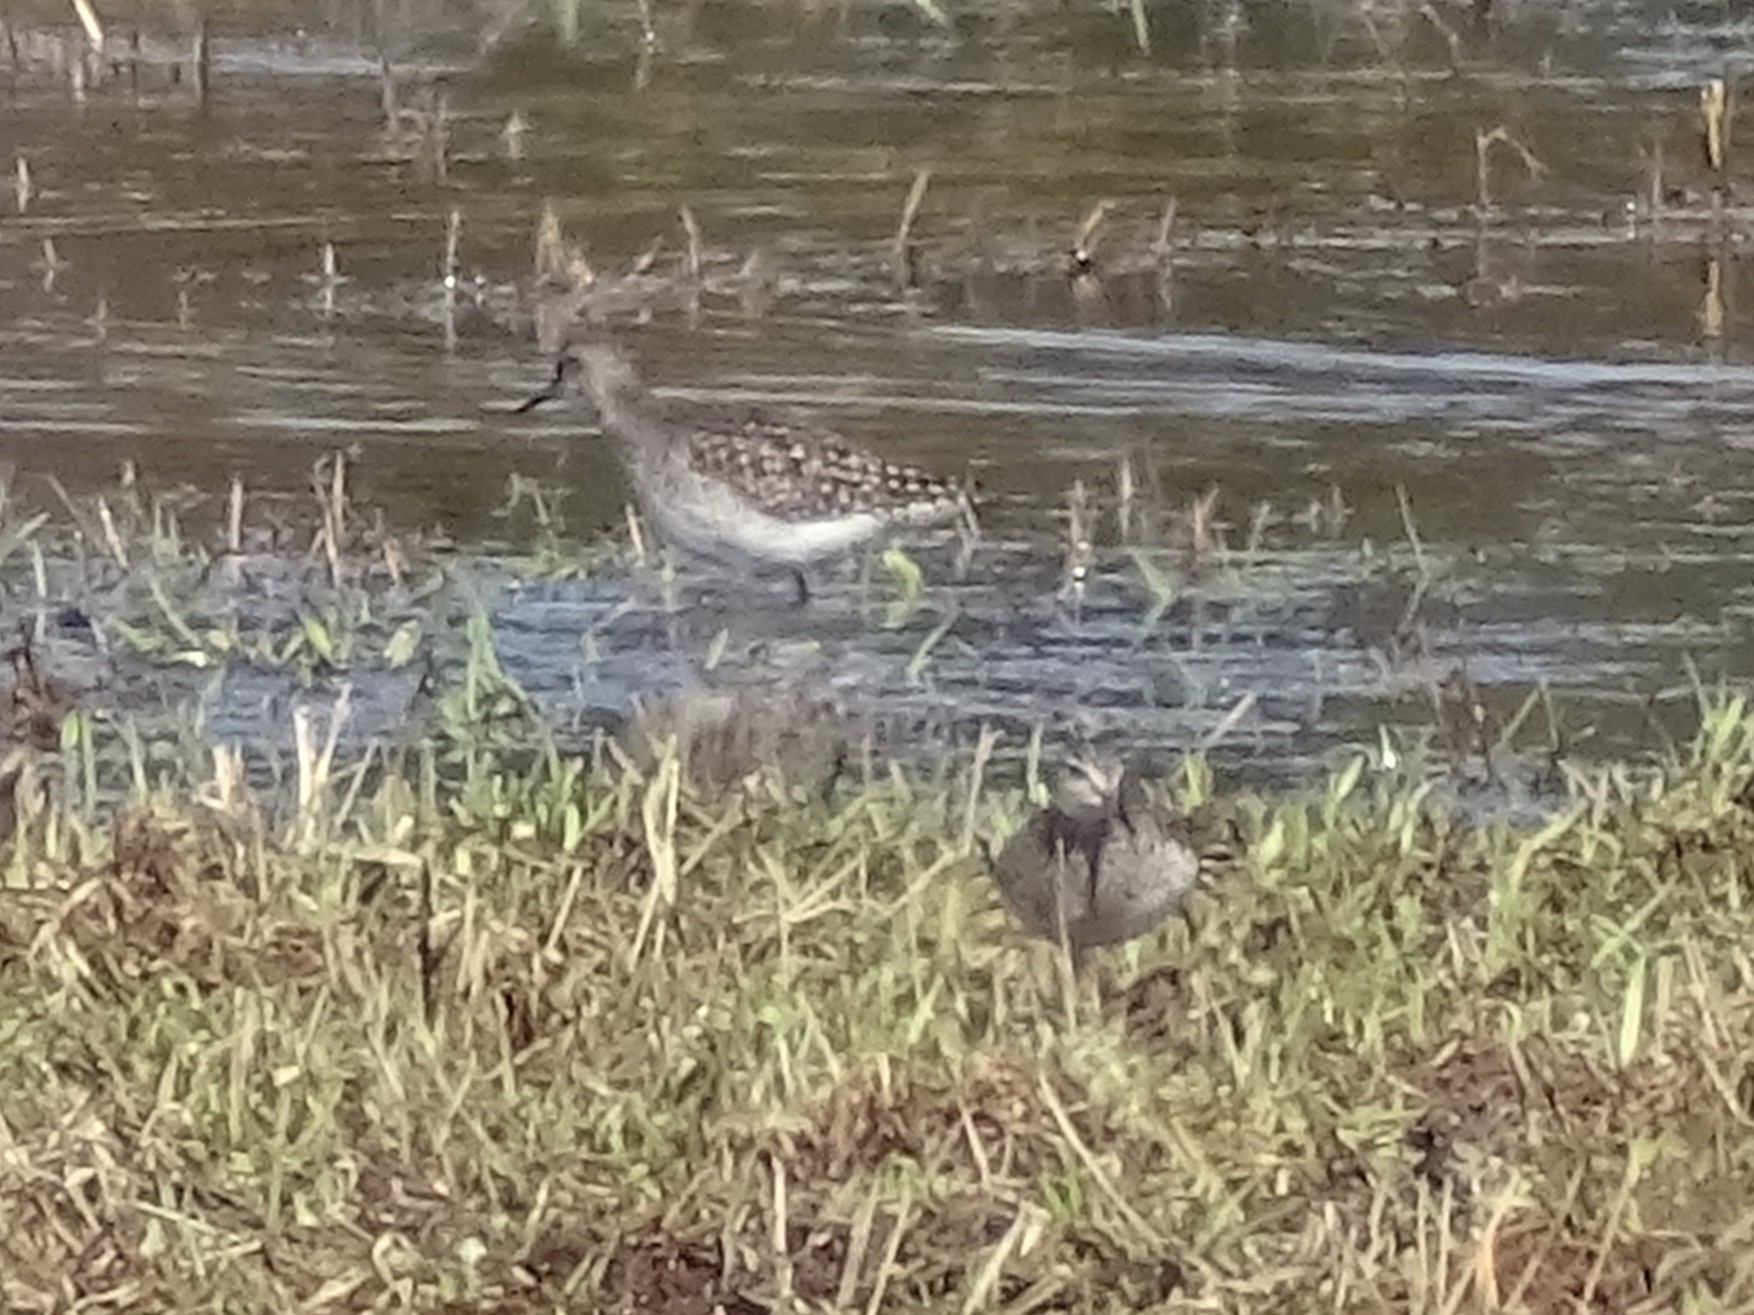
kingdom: Animalia
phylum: Chordata
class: Aves
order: Charadriiformes
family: Scolopacidae
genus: Tringa
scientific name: Tringa glareola
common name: Wood sandpiper
